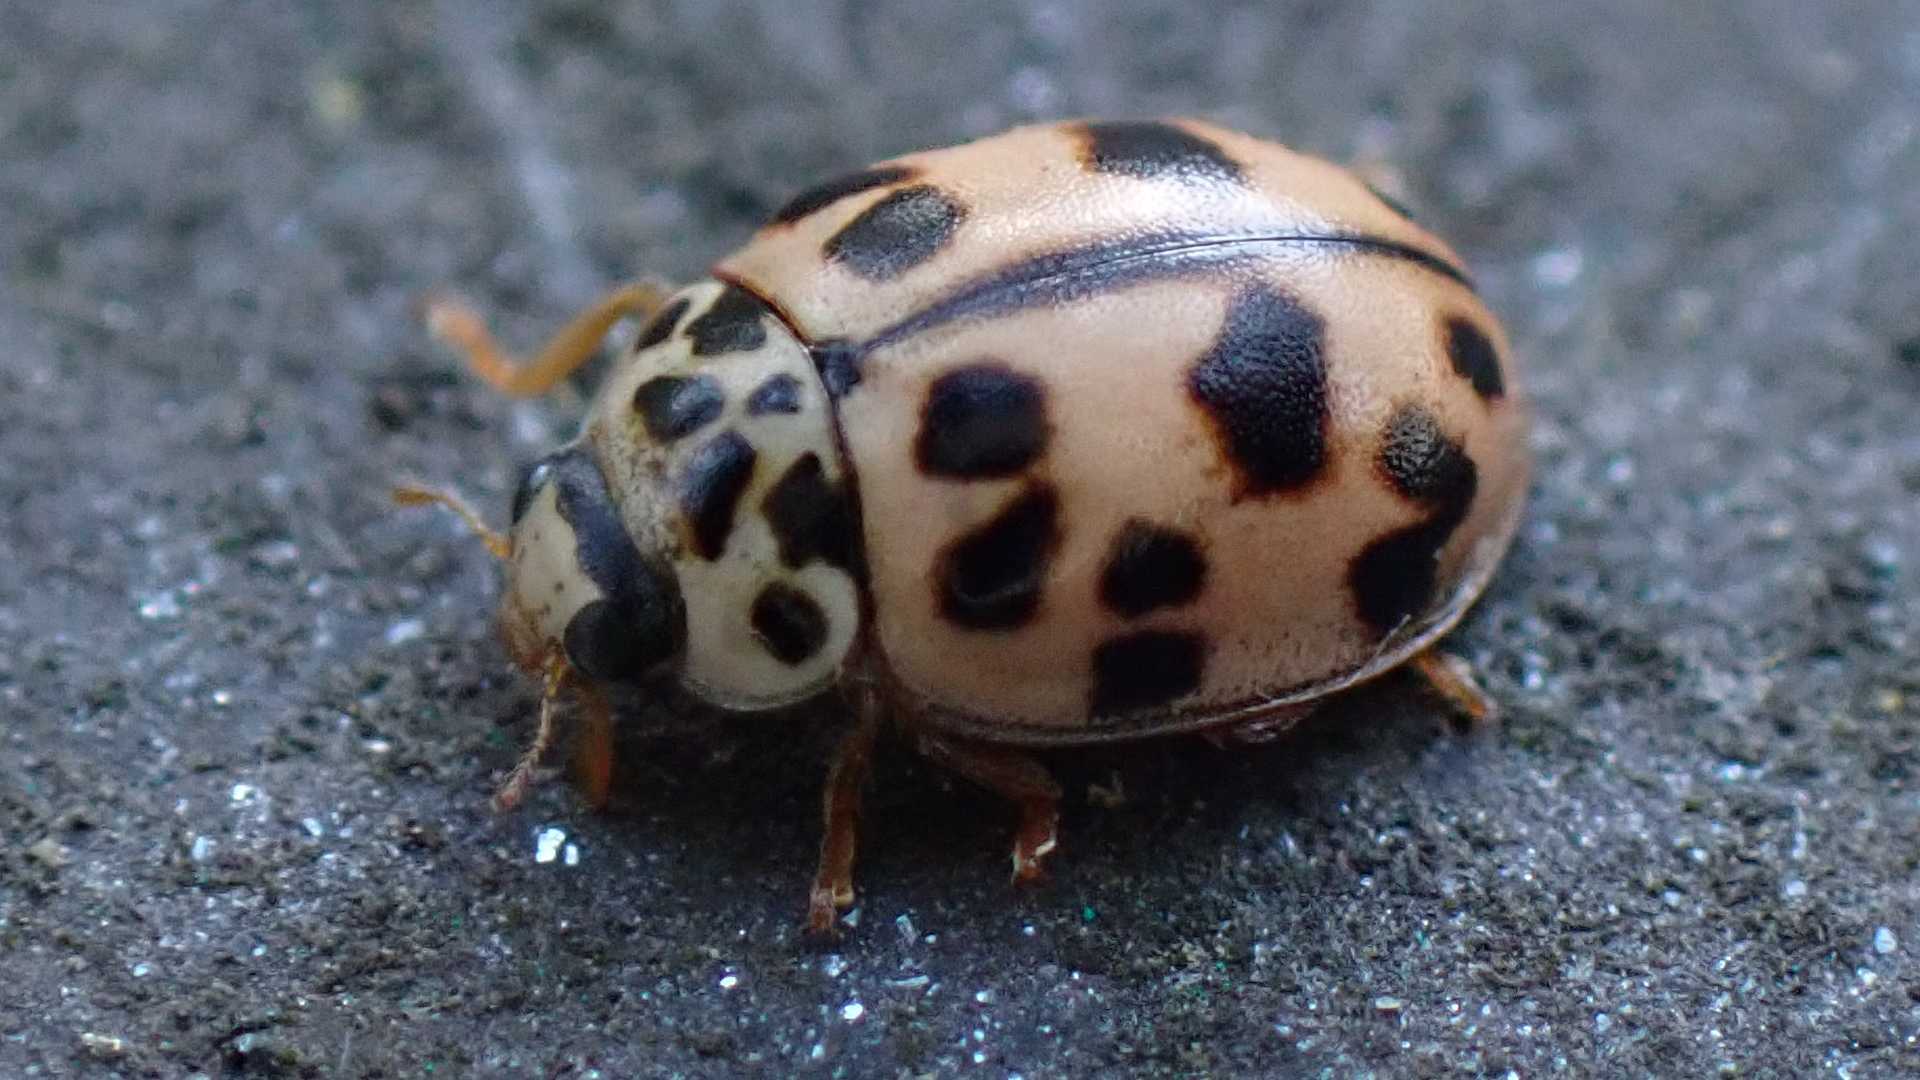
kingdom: Animalia
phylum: Arthropoda
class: Insecta
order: Coleoptera
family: Coccinellidae
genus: Oenopia
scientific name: Oenopia conglobata
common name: Ladybird beetle
